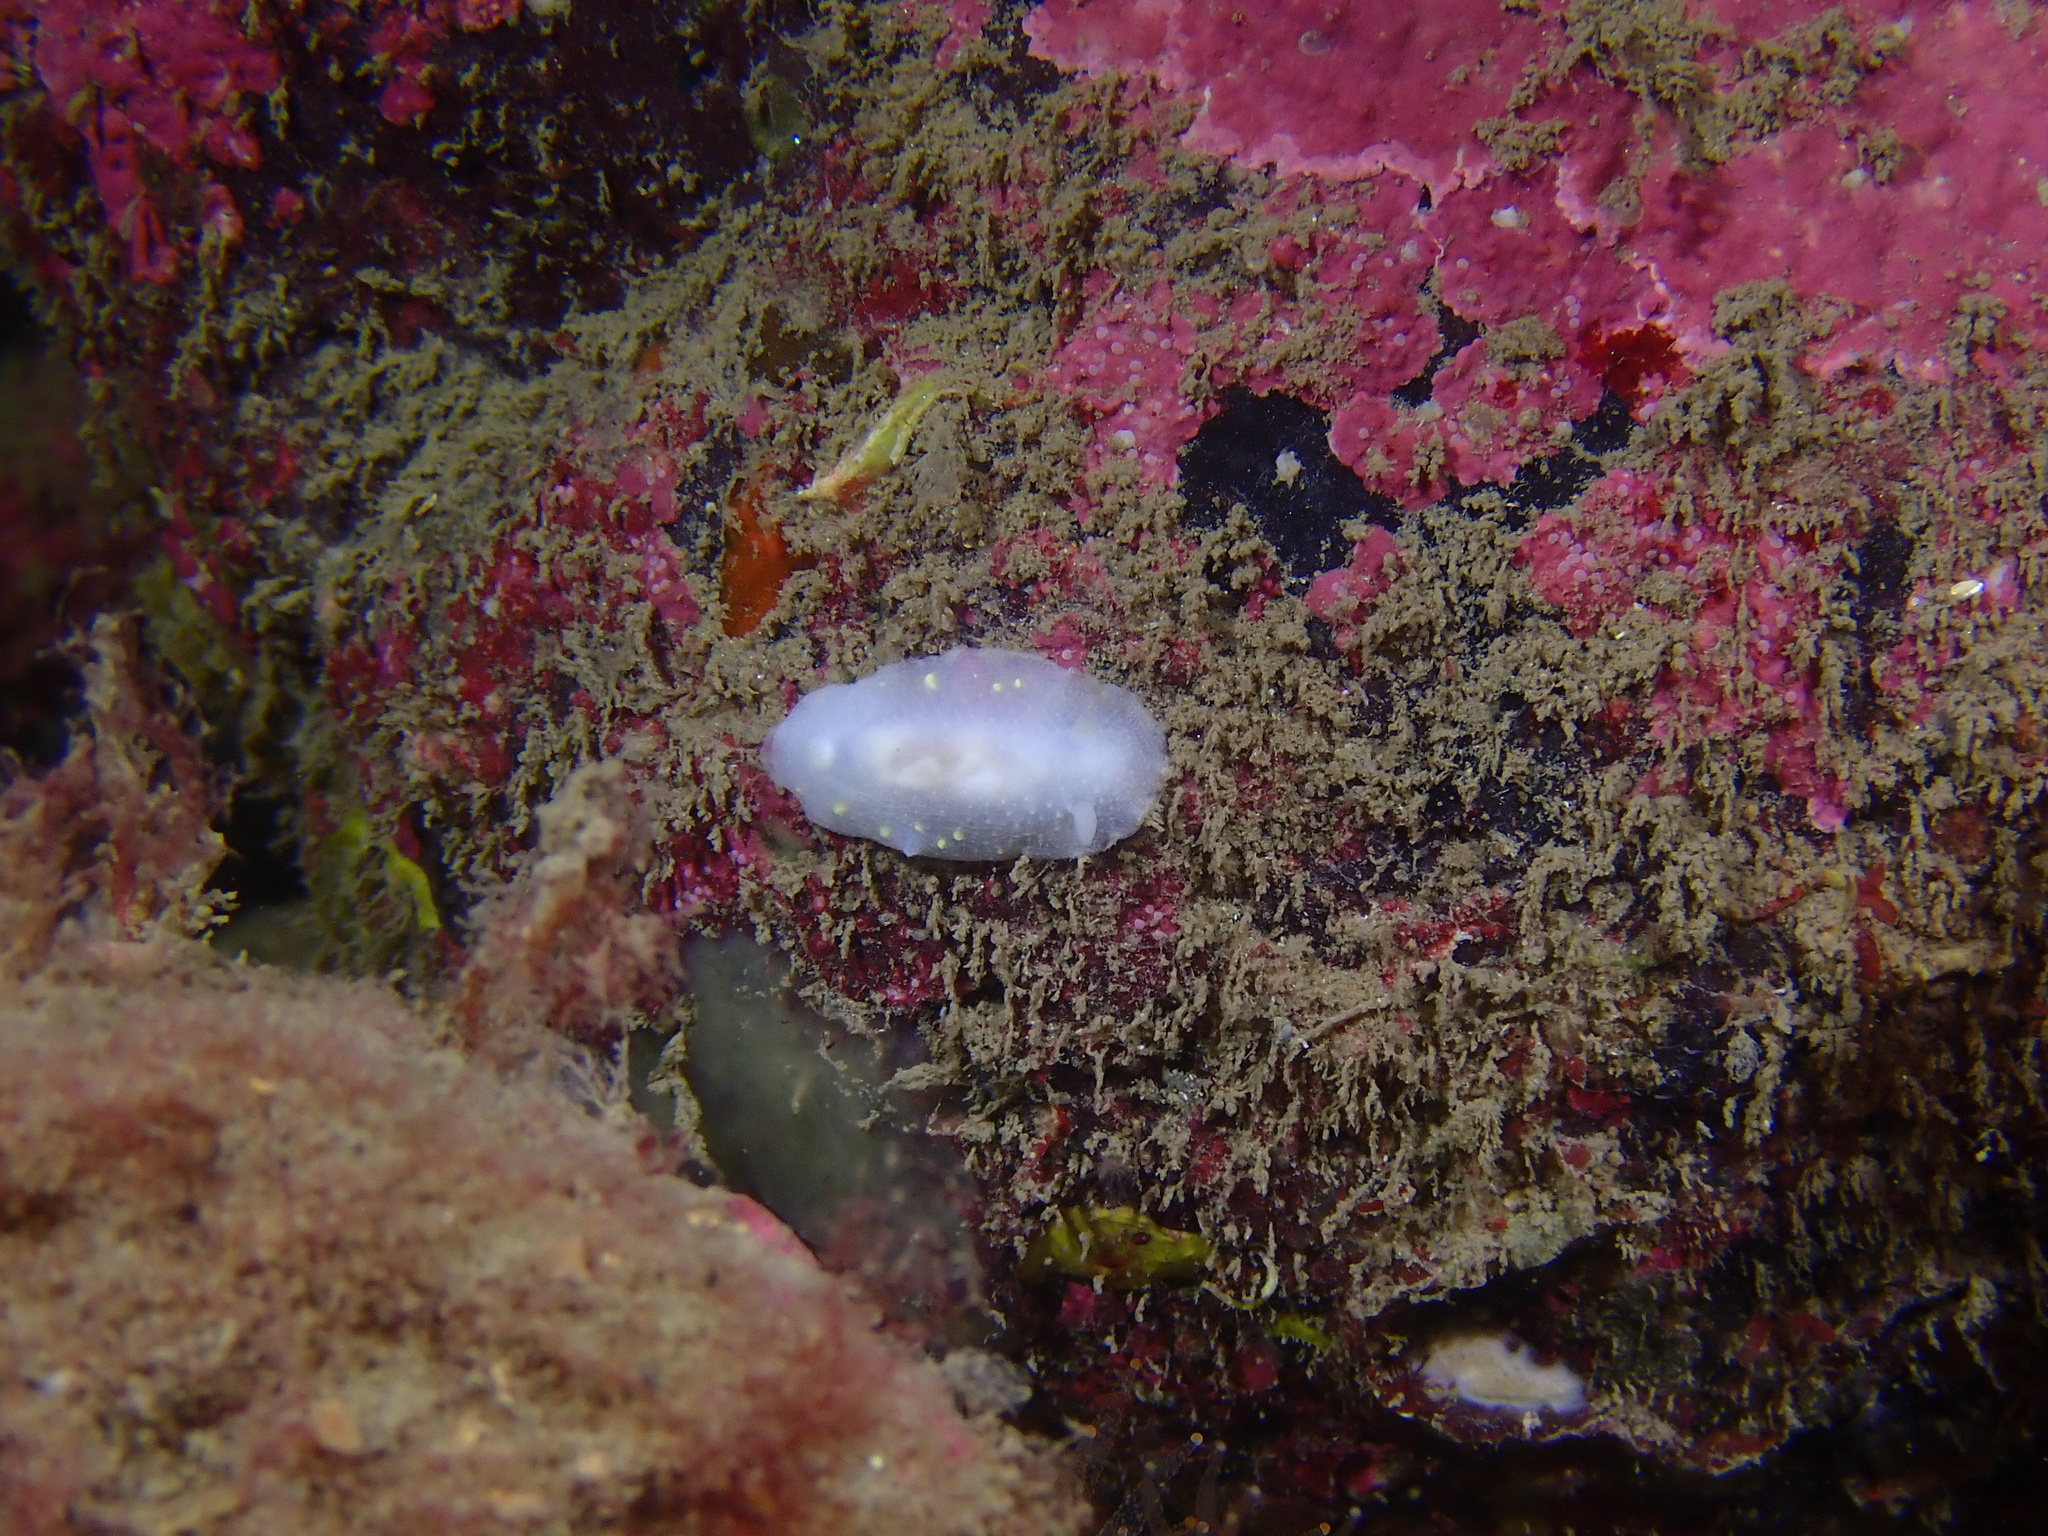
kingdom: Animalia
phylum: Mollusca
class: Gastropoda
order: Nudibranchia
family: Cadlinidae
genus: Cadlina
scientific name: Cadlina laevis
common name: White atlantic cadlina
